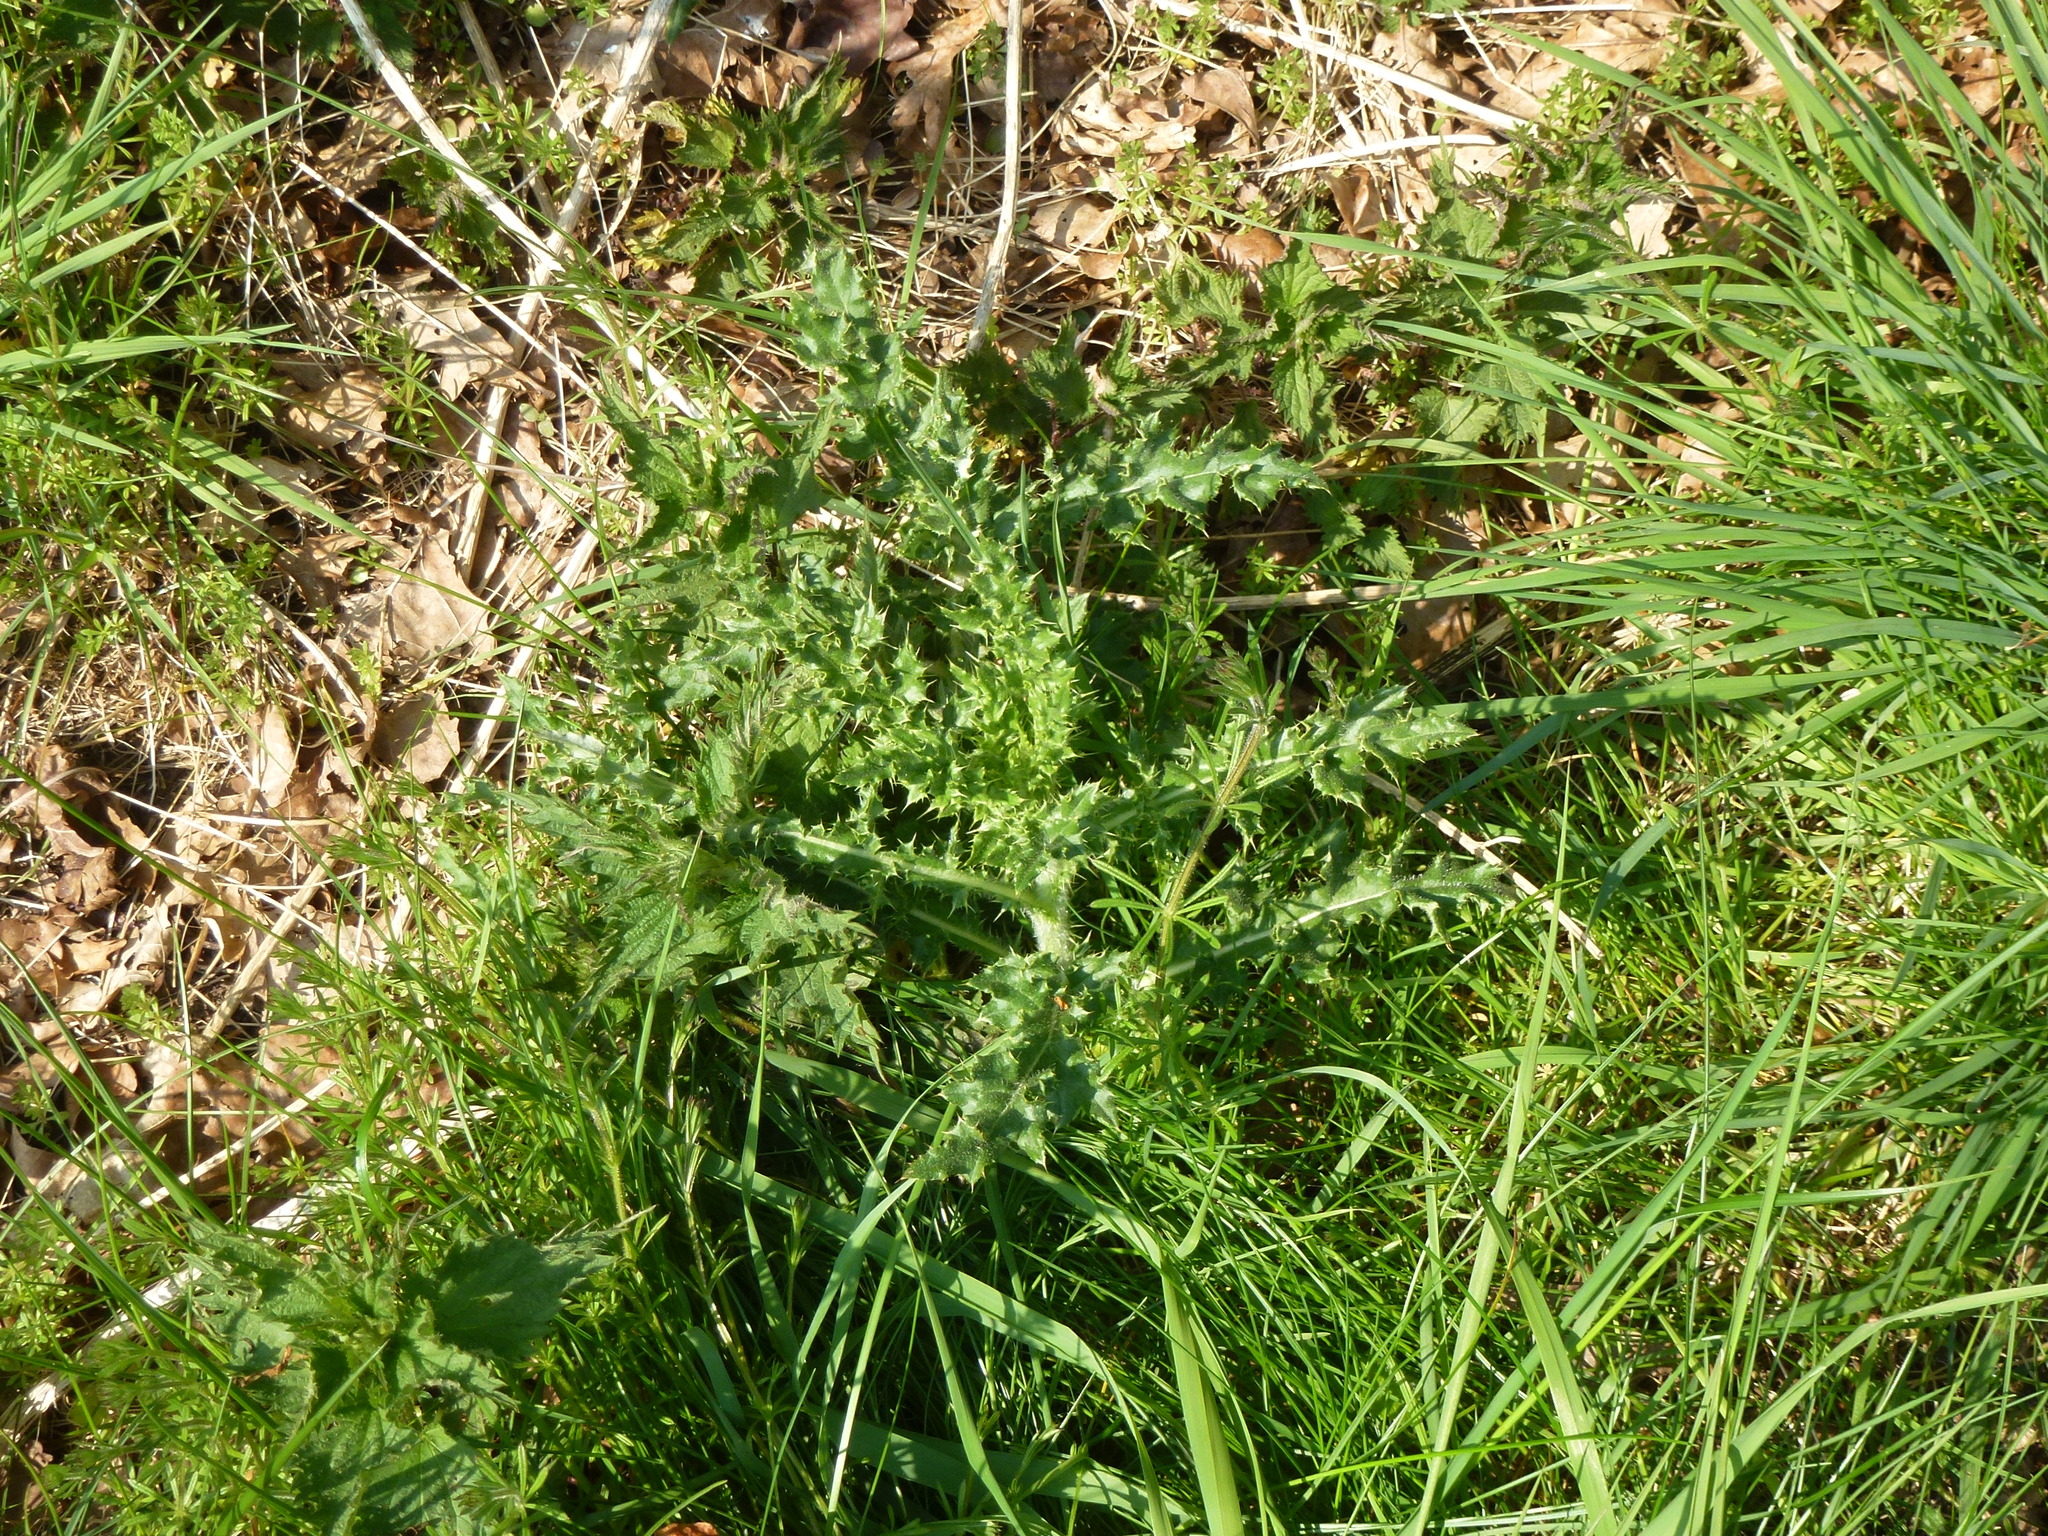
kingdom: Plantae
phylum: Tracheophyta
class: Magnoliopsida
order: Asterales
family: Asteraceae
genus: Cirsium
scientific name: Cirsium arvense
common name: Creeping thistle
